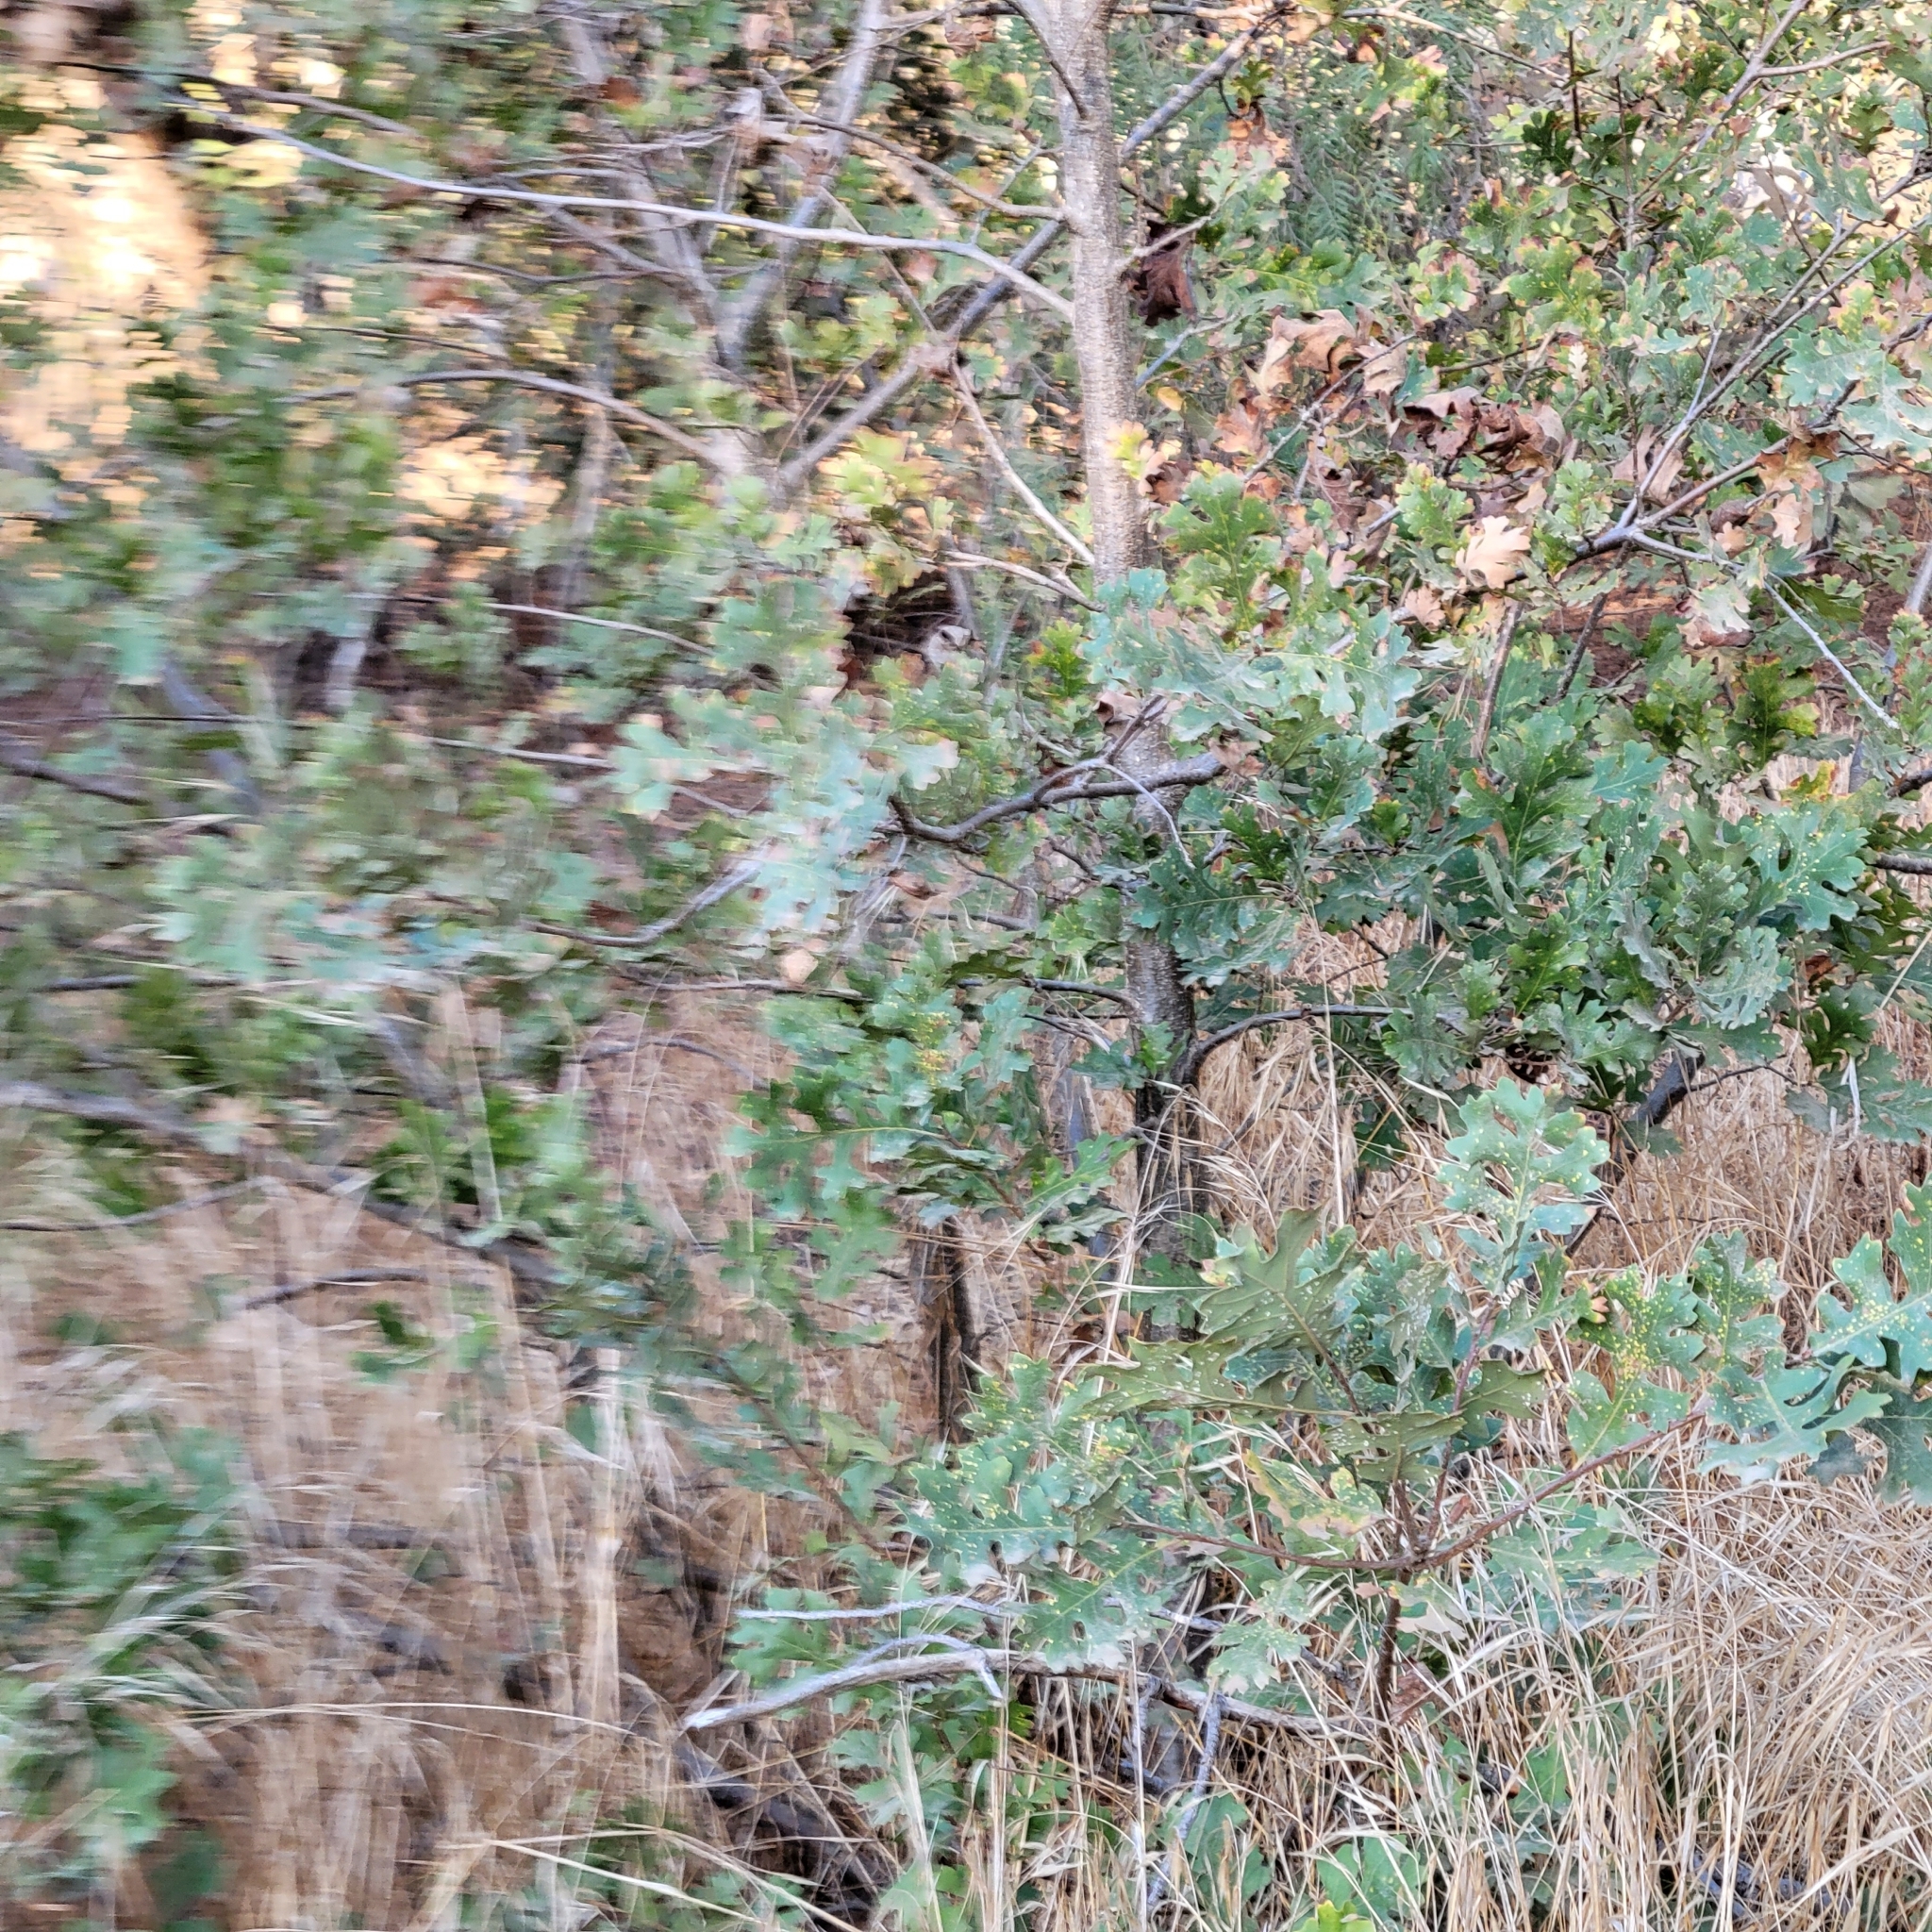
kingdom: Plantae
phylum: Tracheophyta
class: Magnoliopsida
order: Fagales
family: Fagaceae
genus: Quercus
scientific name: Quercus lobata
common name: Valley oak
